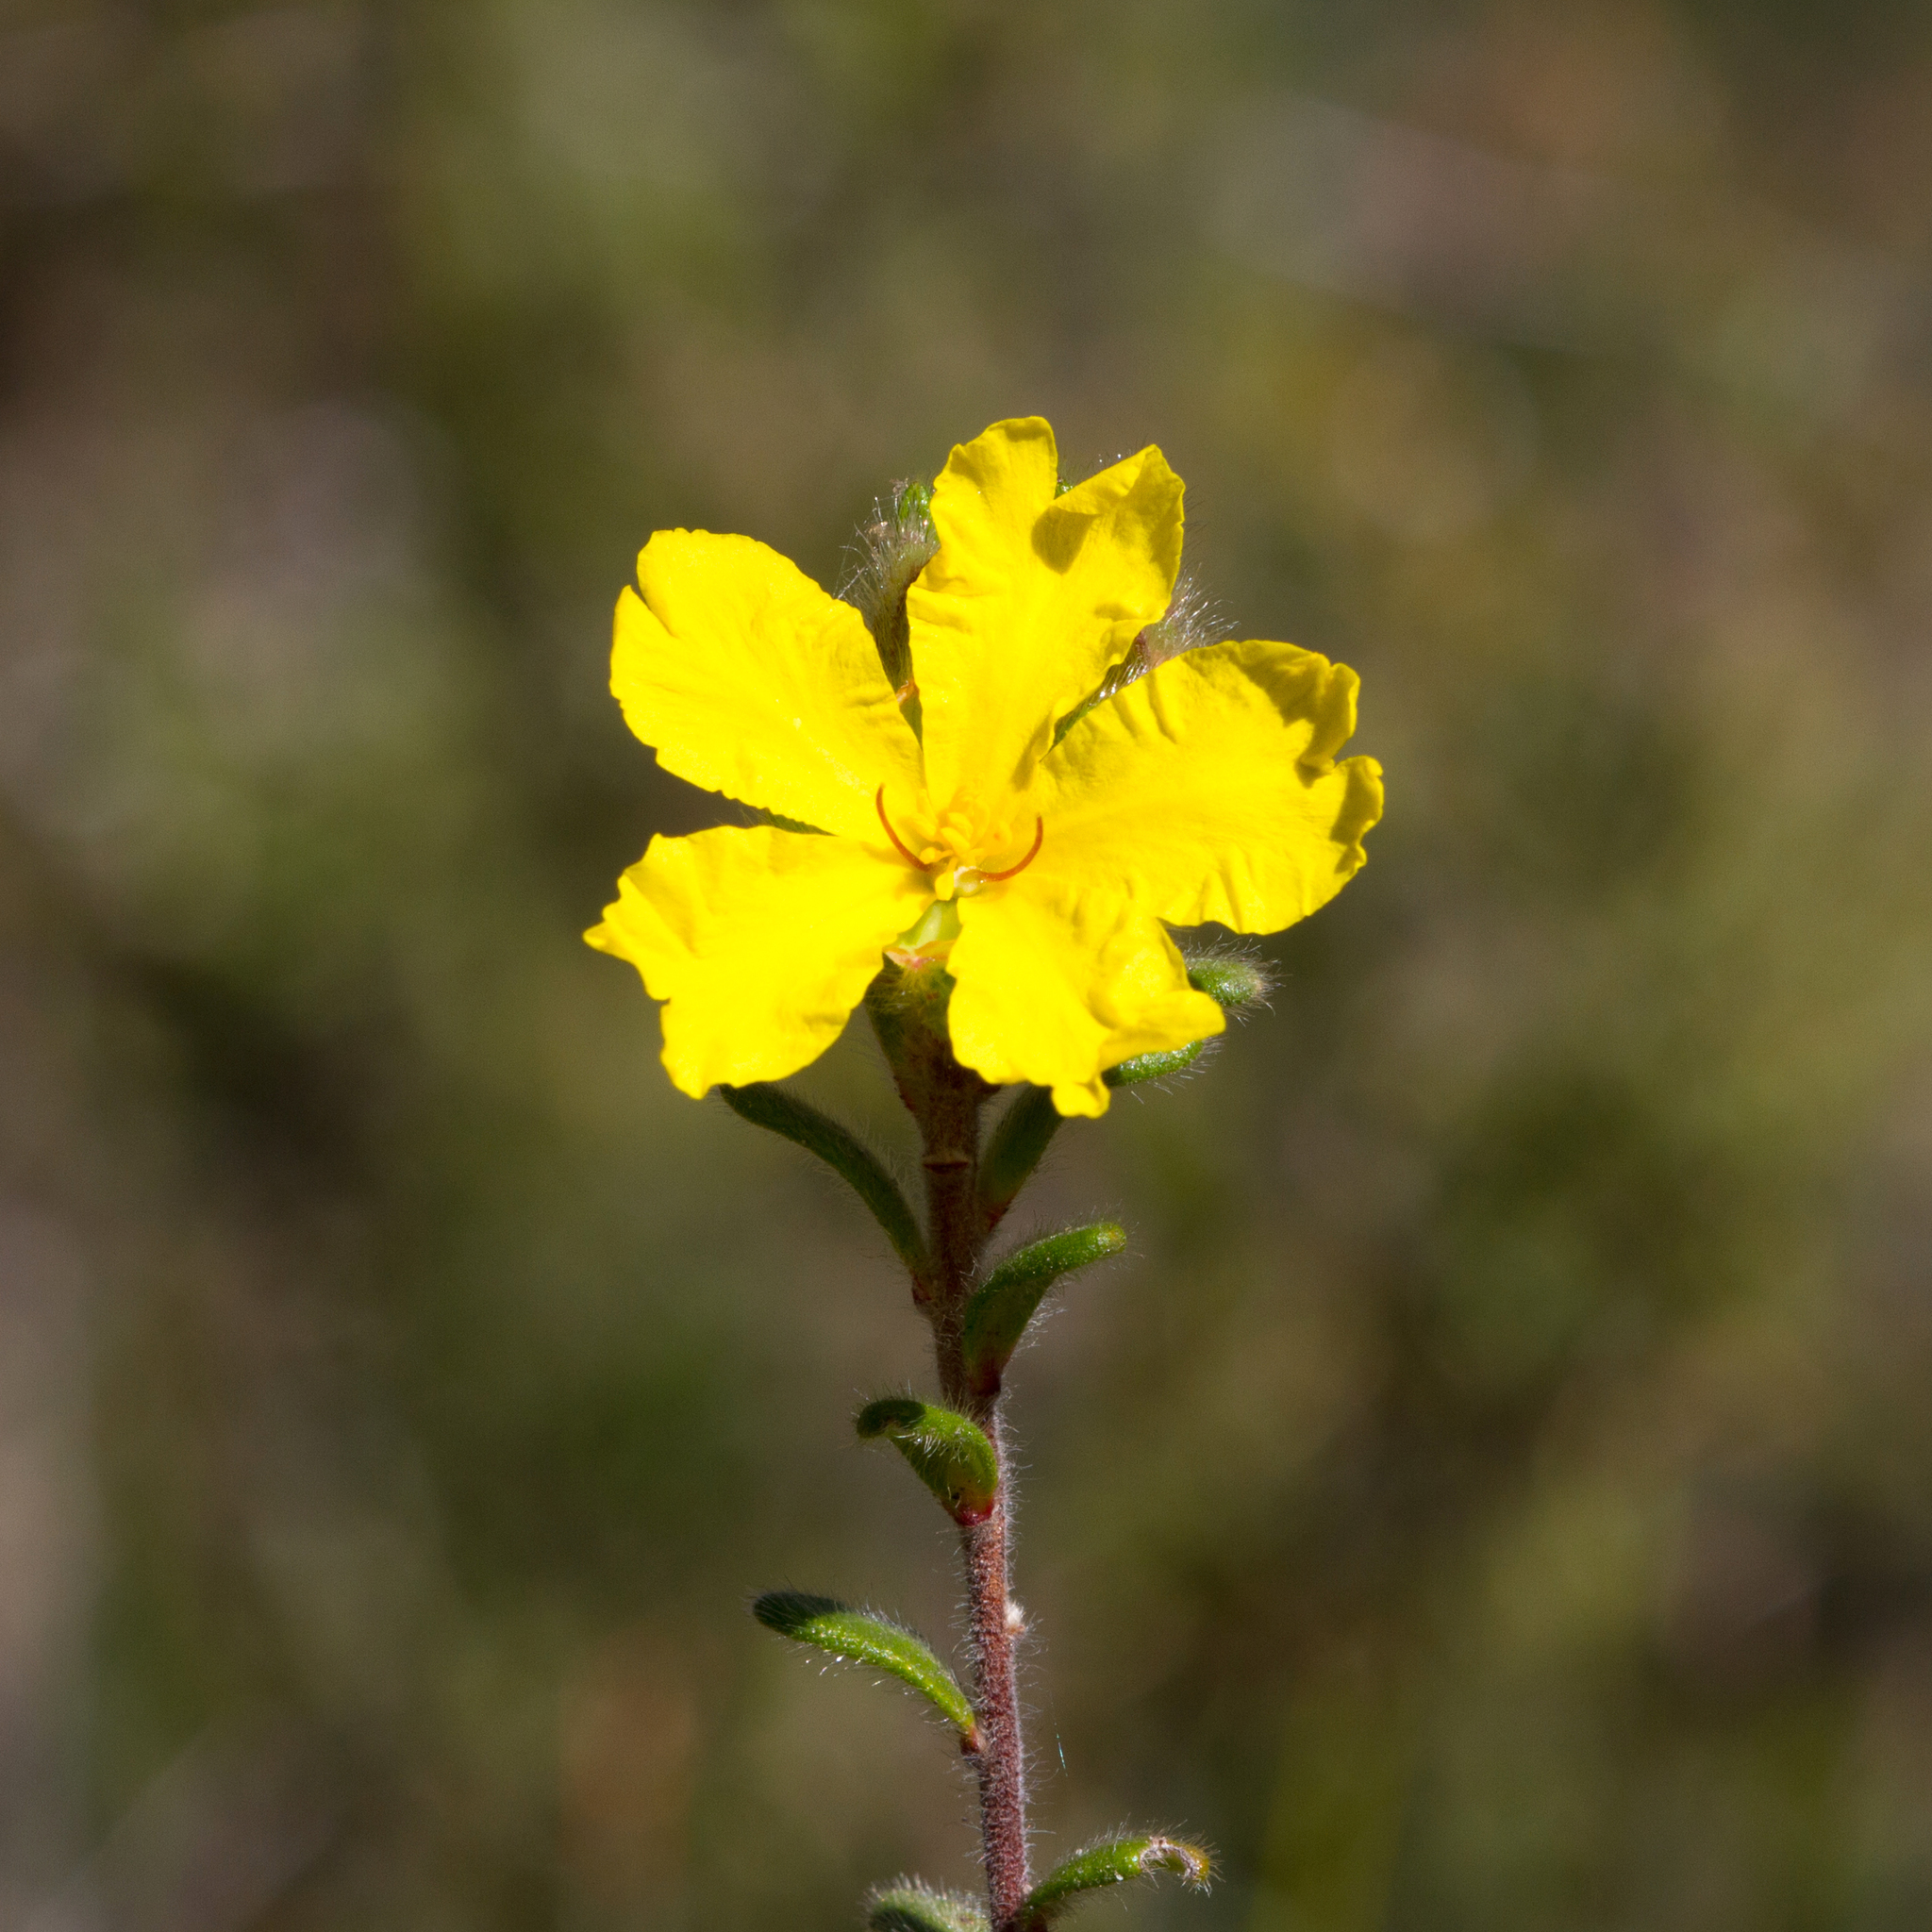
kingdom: Plantae
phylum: Tracheophyta
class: Magnoliopsida
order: Dilleniales
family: Dilleniaceae
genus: Hibbertia
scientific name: Hibbertia sericea
